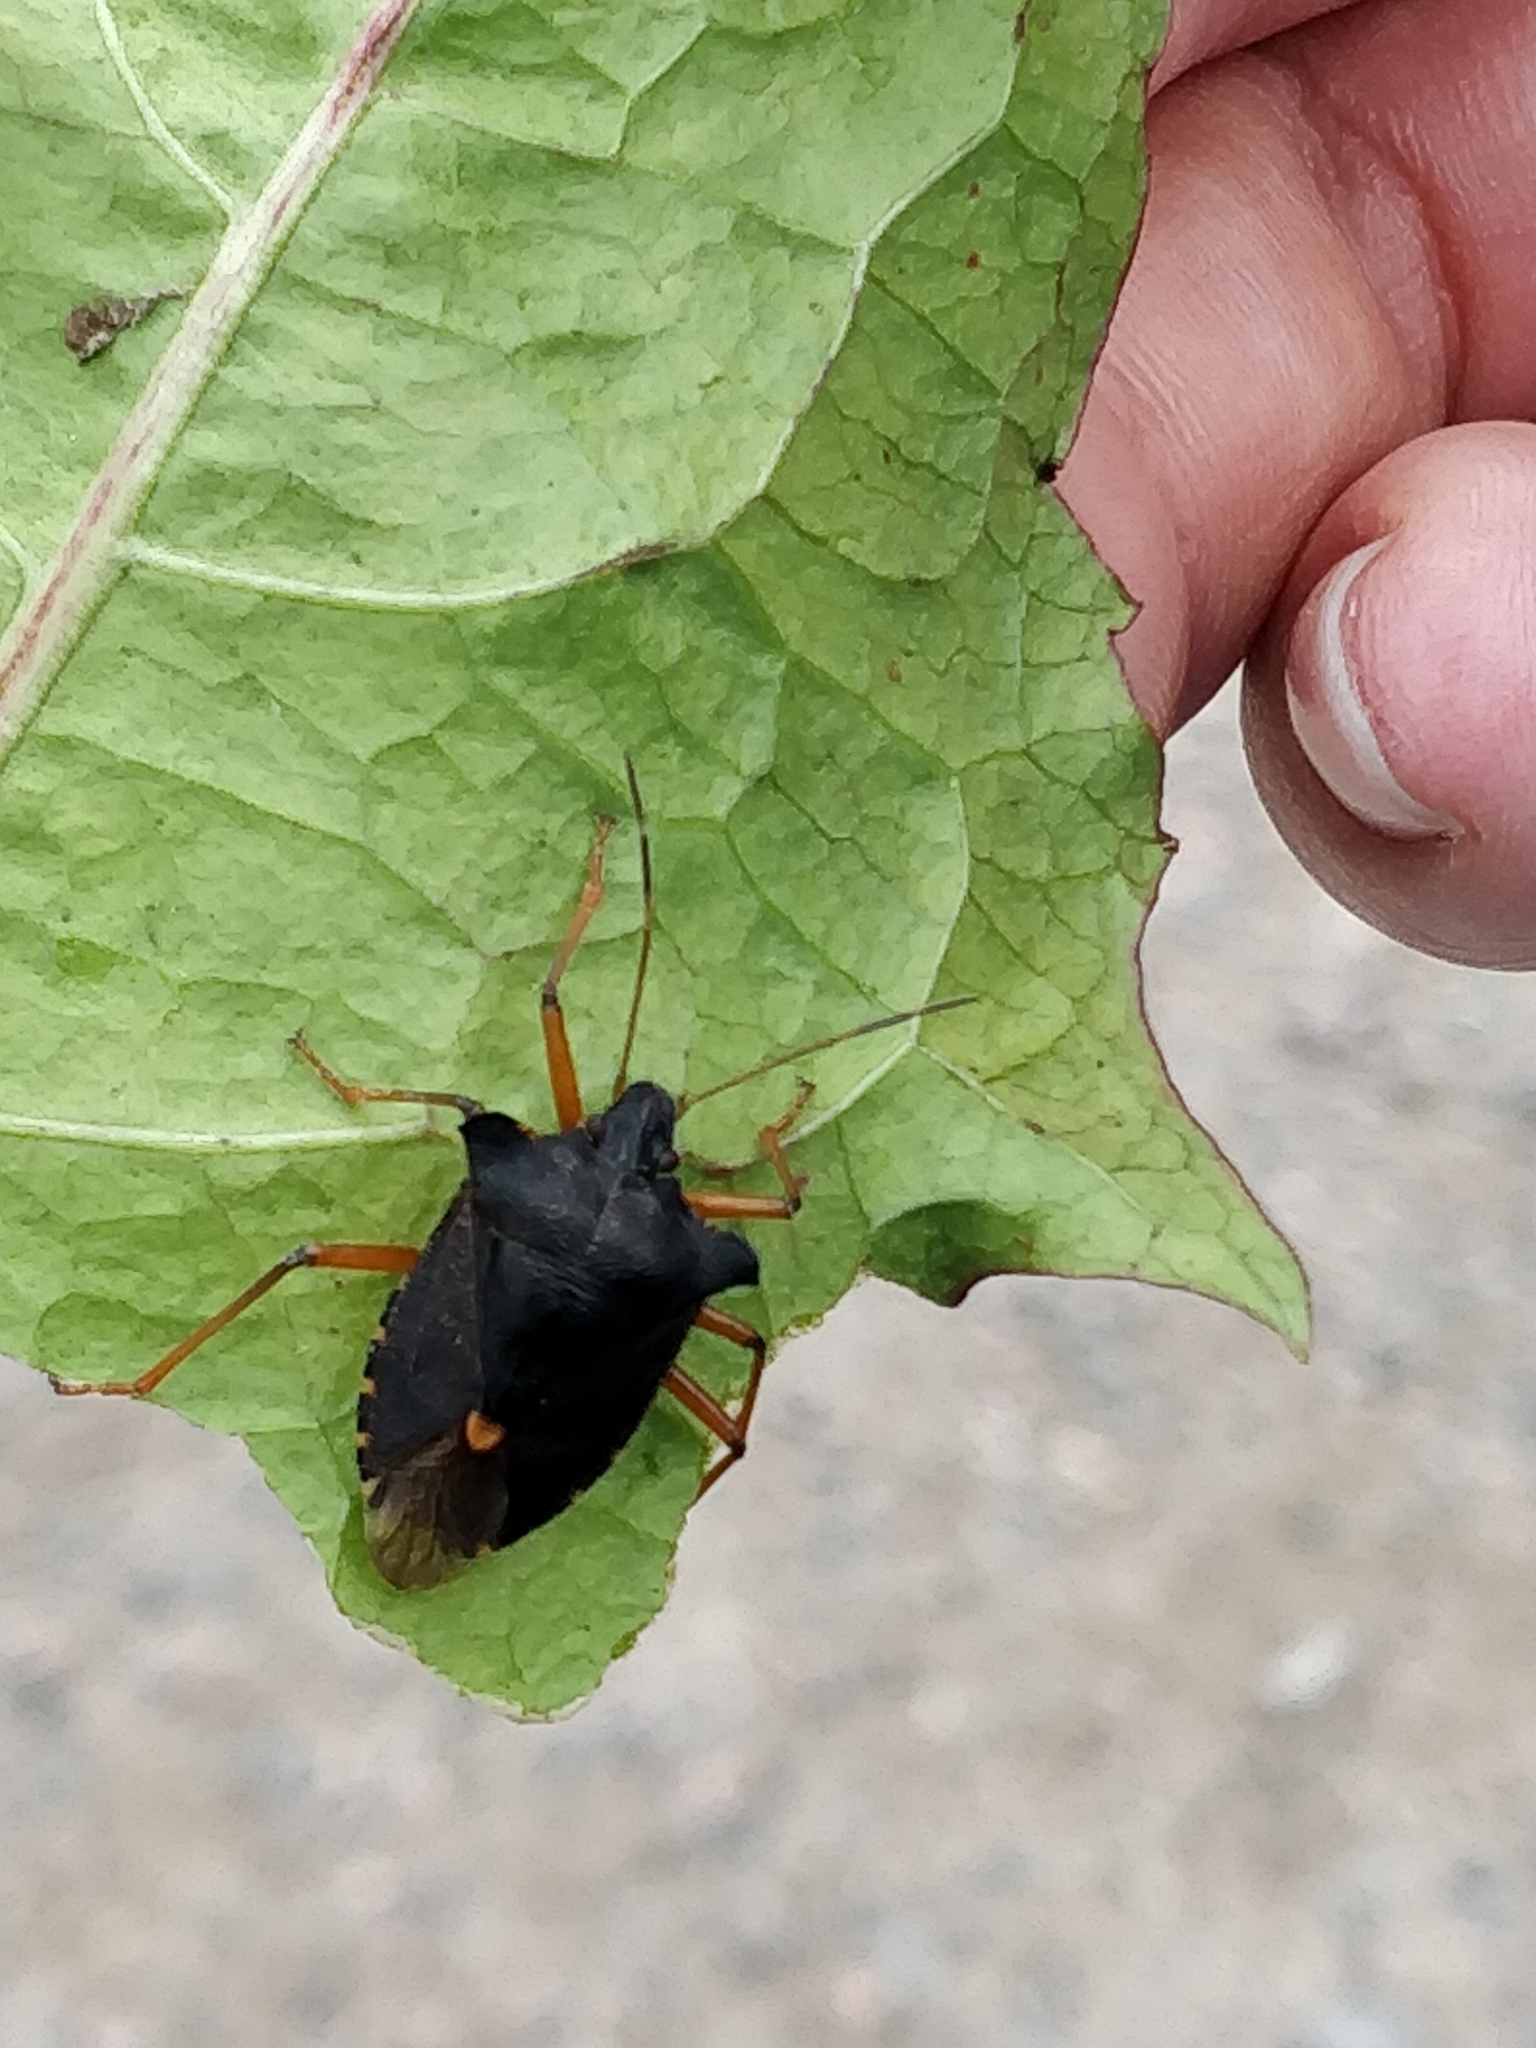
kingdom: Animalia
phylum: Arthropoda
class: Insecta
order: Hemiptera
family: Pentatomidae
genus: Pentatoma
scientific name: Pentatoma rufipes
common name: Forest bug
